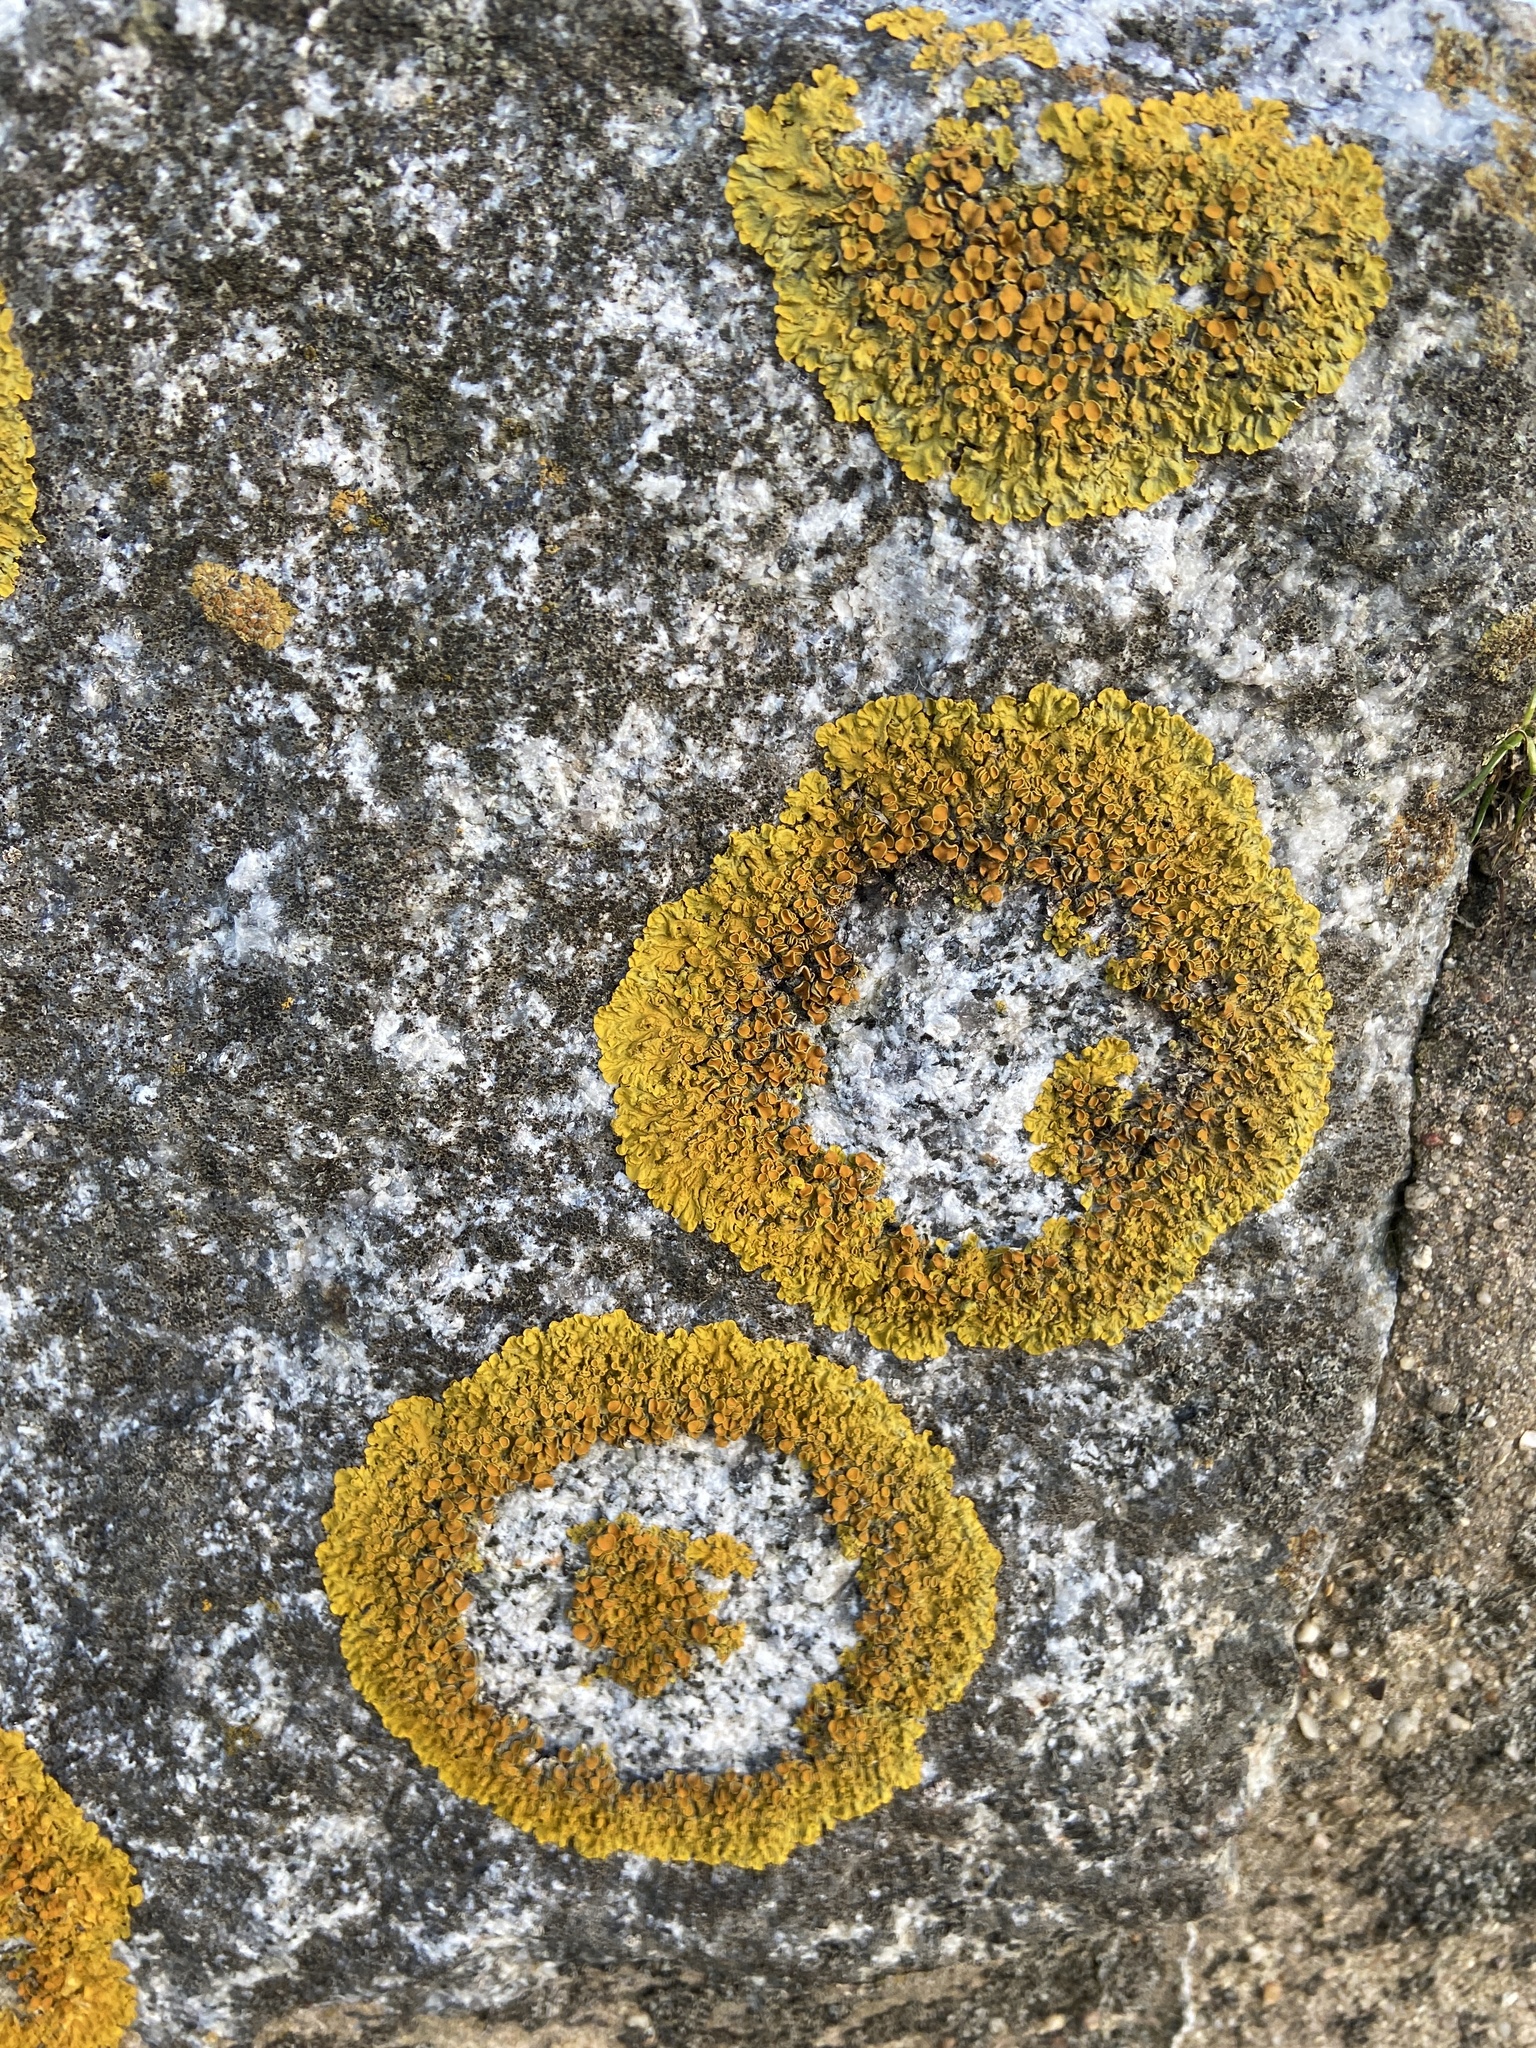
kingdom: Fungi
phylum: Ascomycota
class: Lecanoromycetes
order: Teloschistales
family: Teloschistaceae
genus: Xanthoria
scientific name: Xanthoria parietina
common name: Common orange lichen
